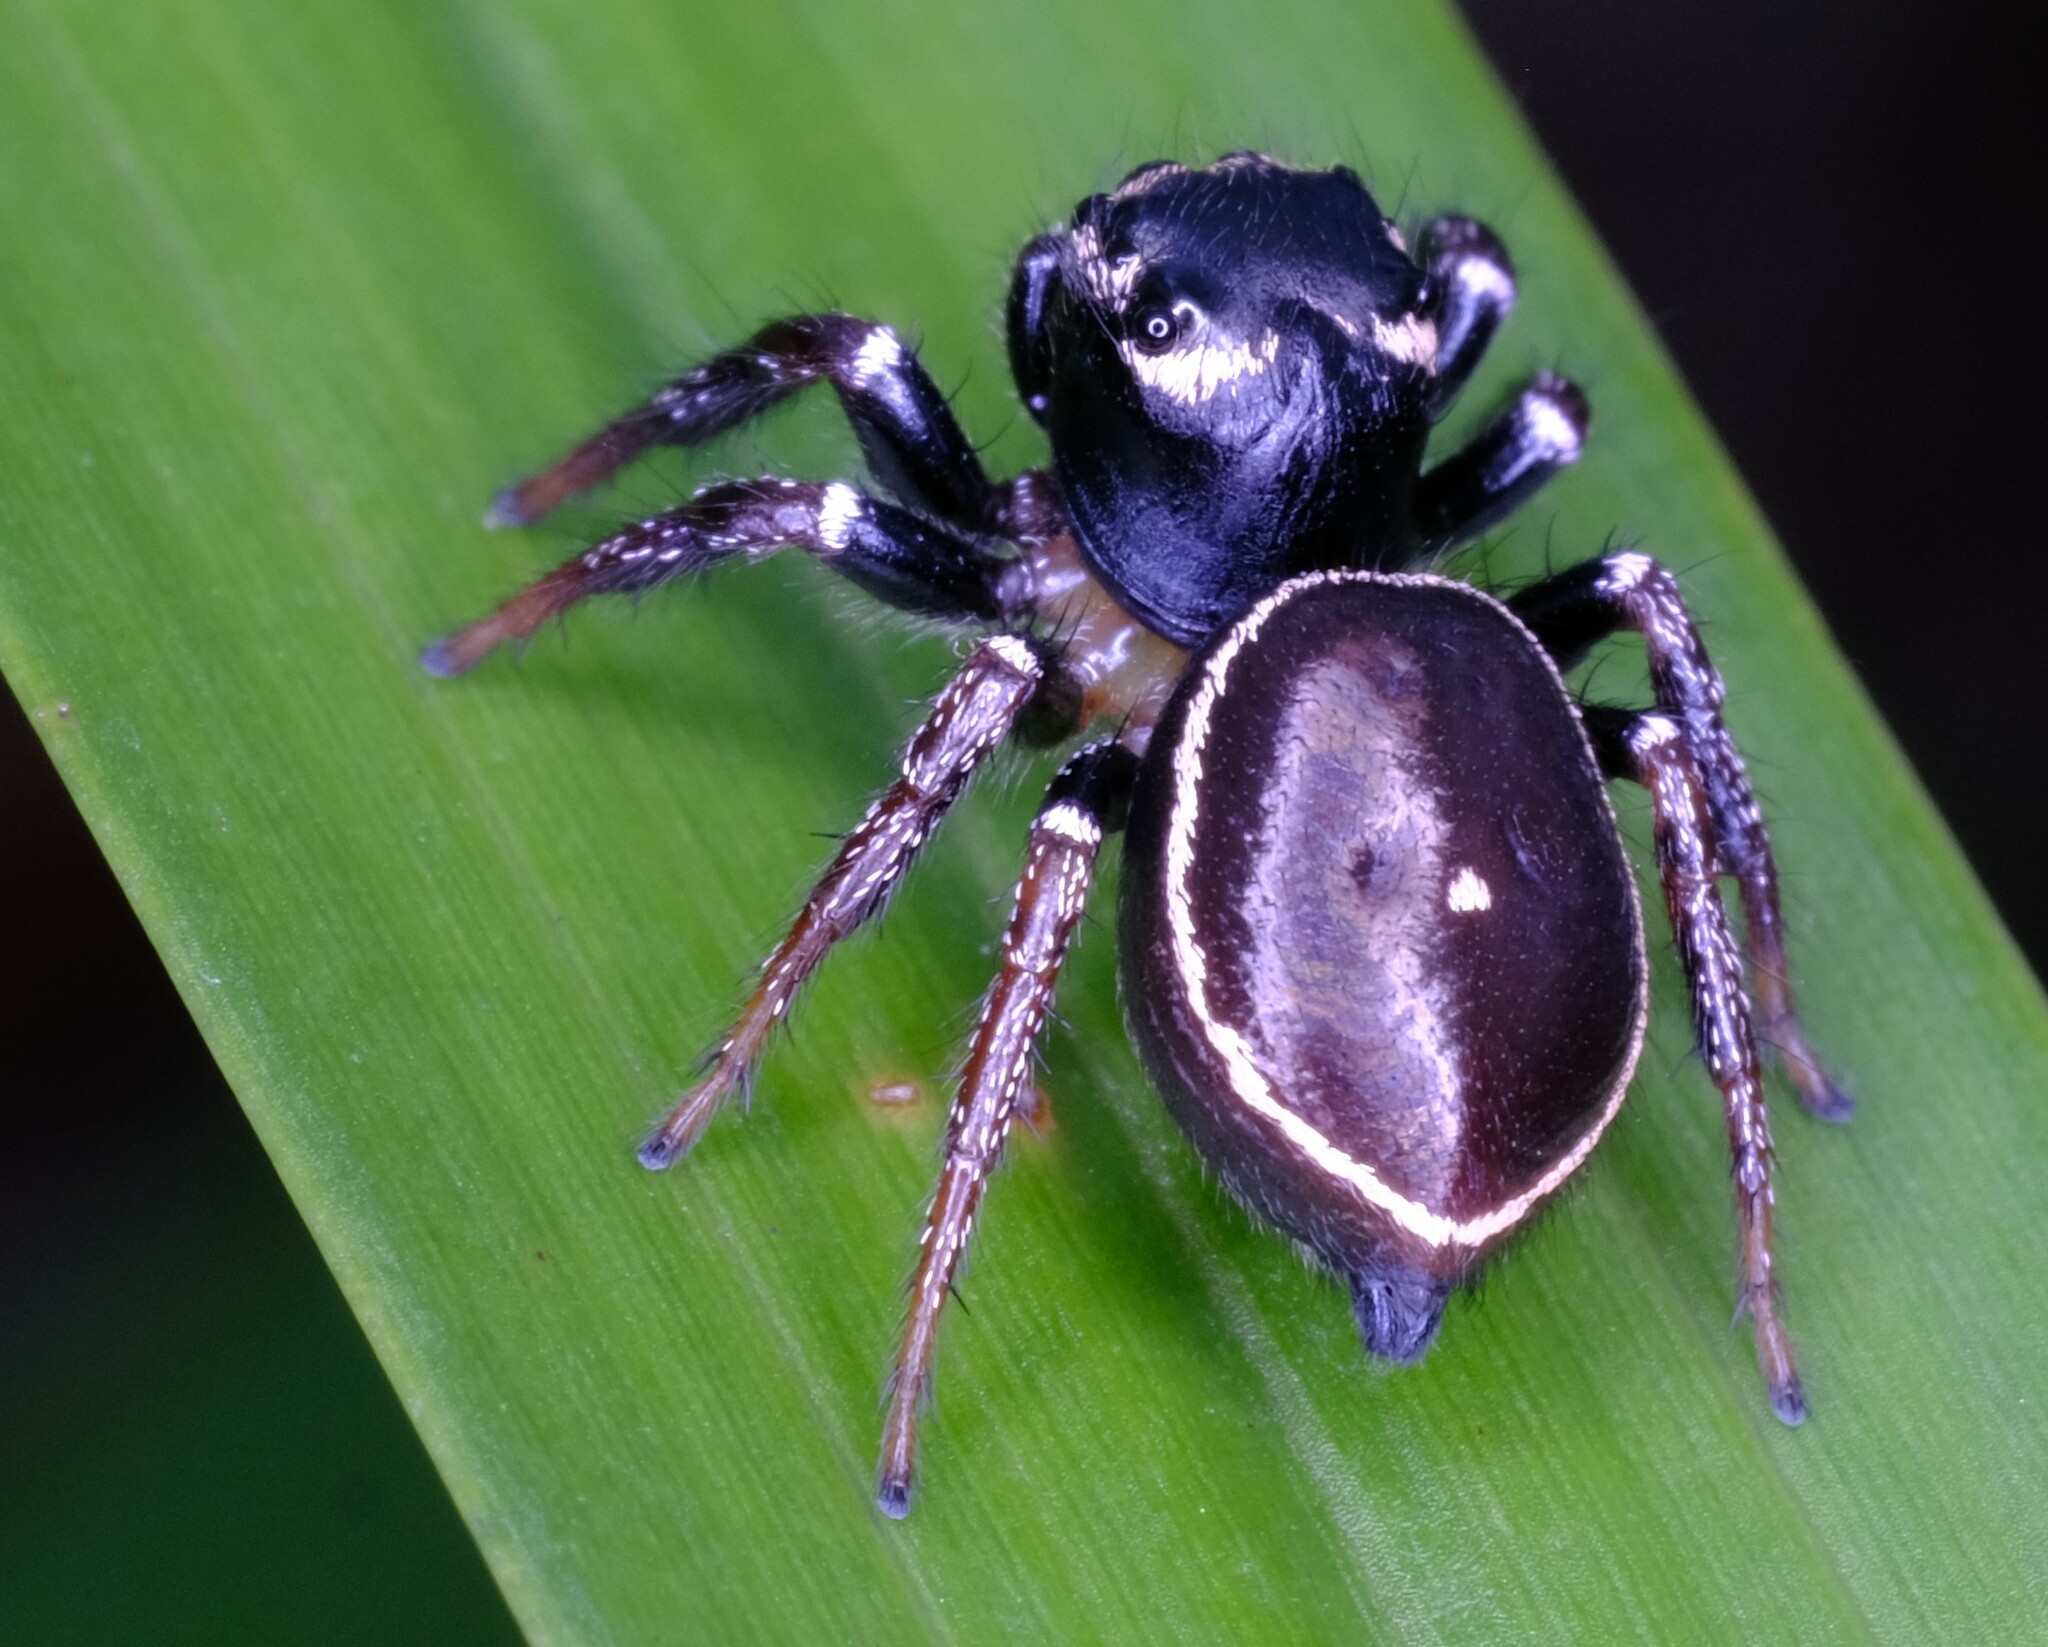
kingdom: Animalia
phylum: Arthropoda
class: Arachnida
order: Araneae
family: Salticidae
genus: Zenodorus
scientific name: Zenodorus orbiculatus
